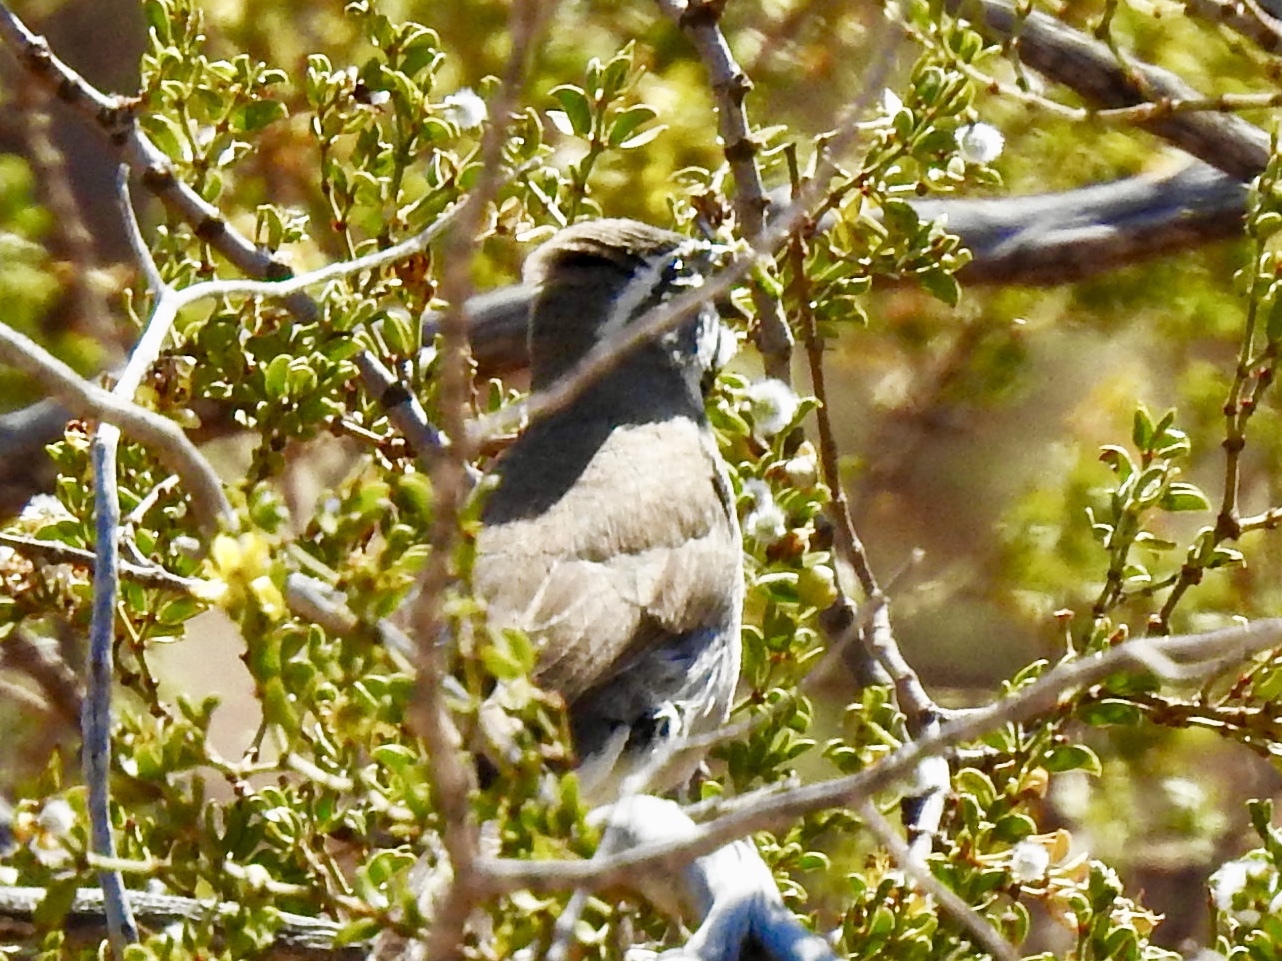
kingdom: Animalia
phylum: Chordata
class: Aves
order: Passeriformes
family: Passerellidae
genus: Amphispiza
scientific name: Amphispiza bilineata
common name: Black-throated sparrow
